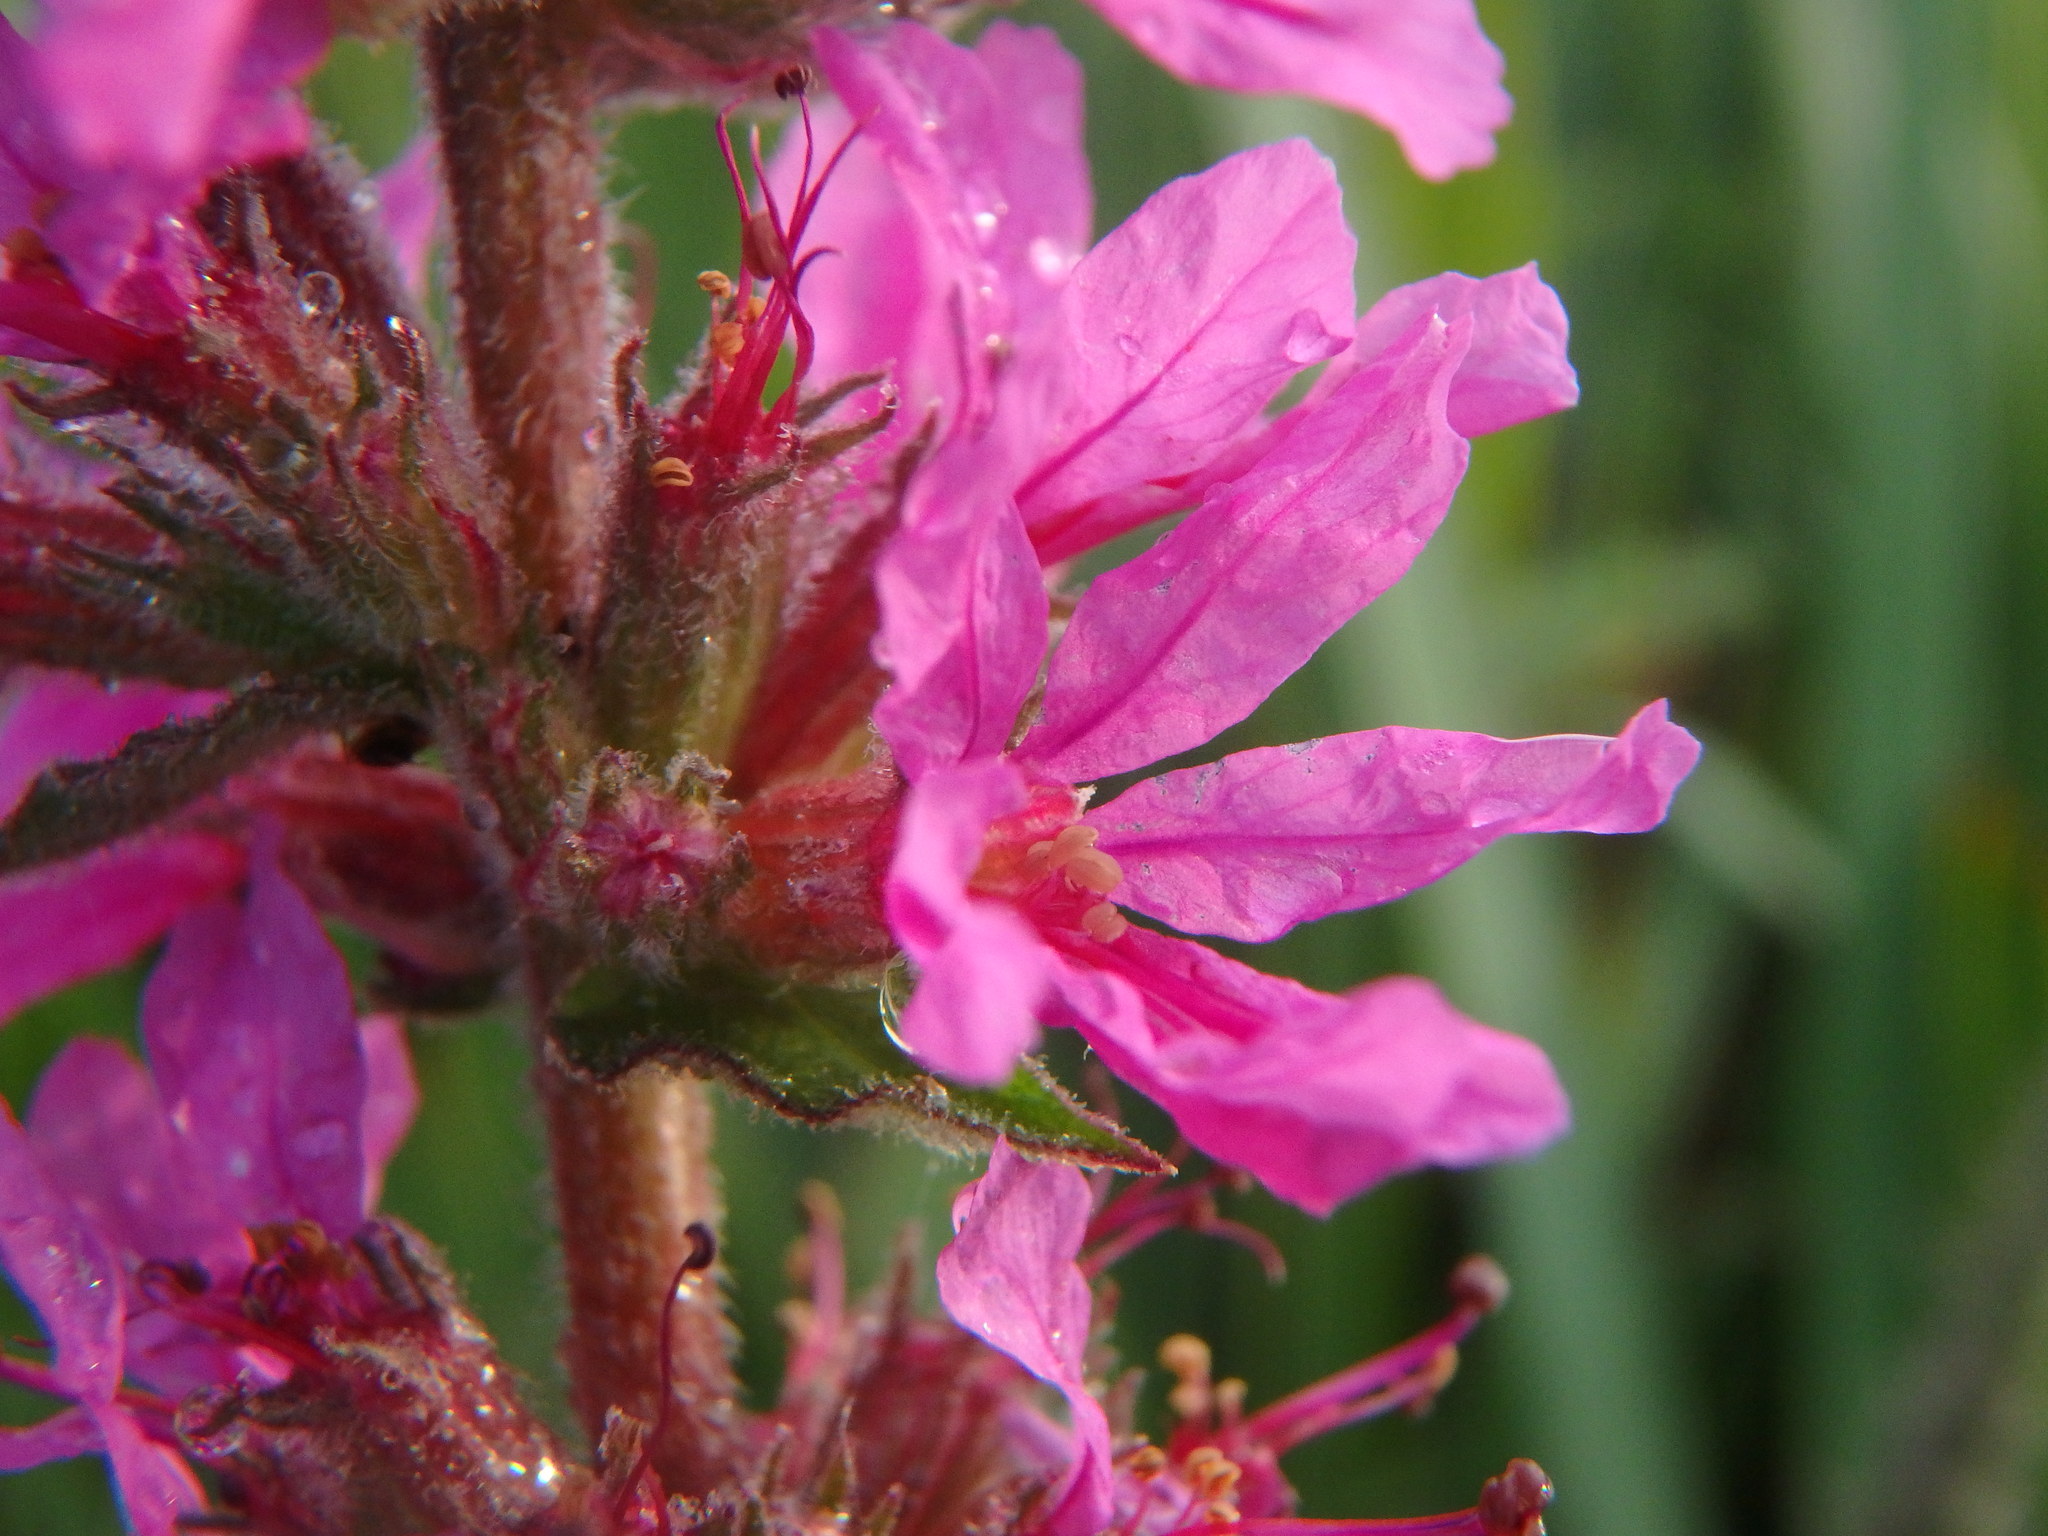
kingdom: Plantae
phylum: Tracheophyta
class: Magnoliopsida
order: Myrtales
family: Lythraceae
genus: Lythrum
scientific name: Lythrum salicaria
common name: Purple loosestrife
